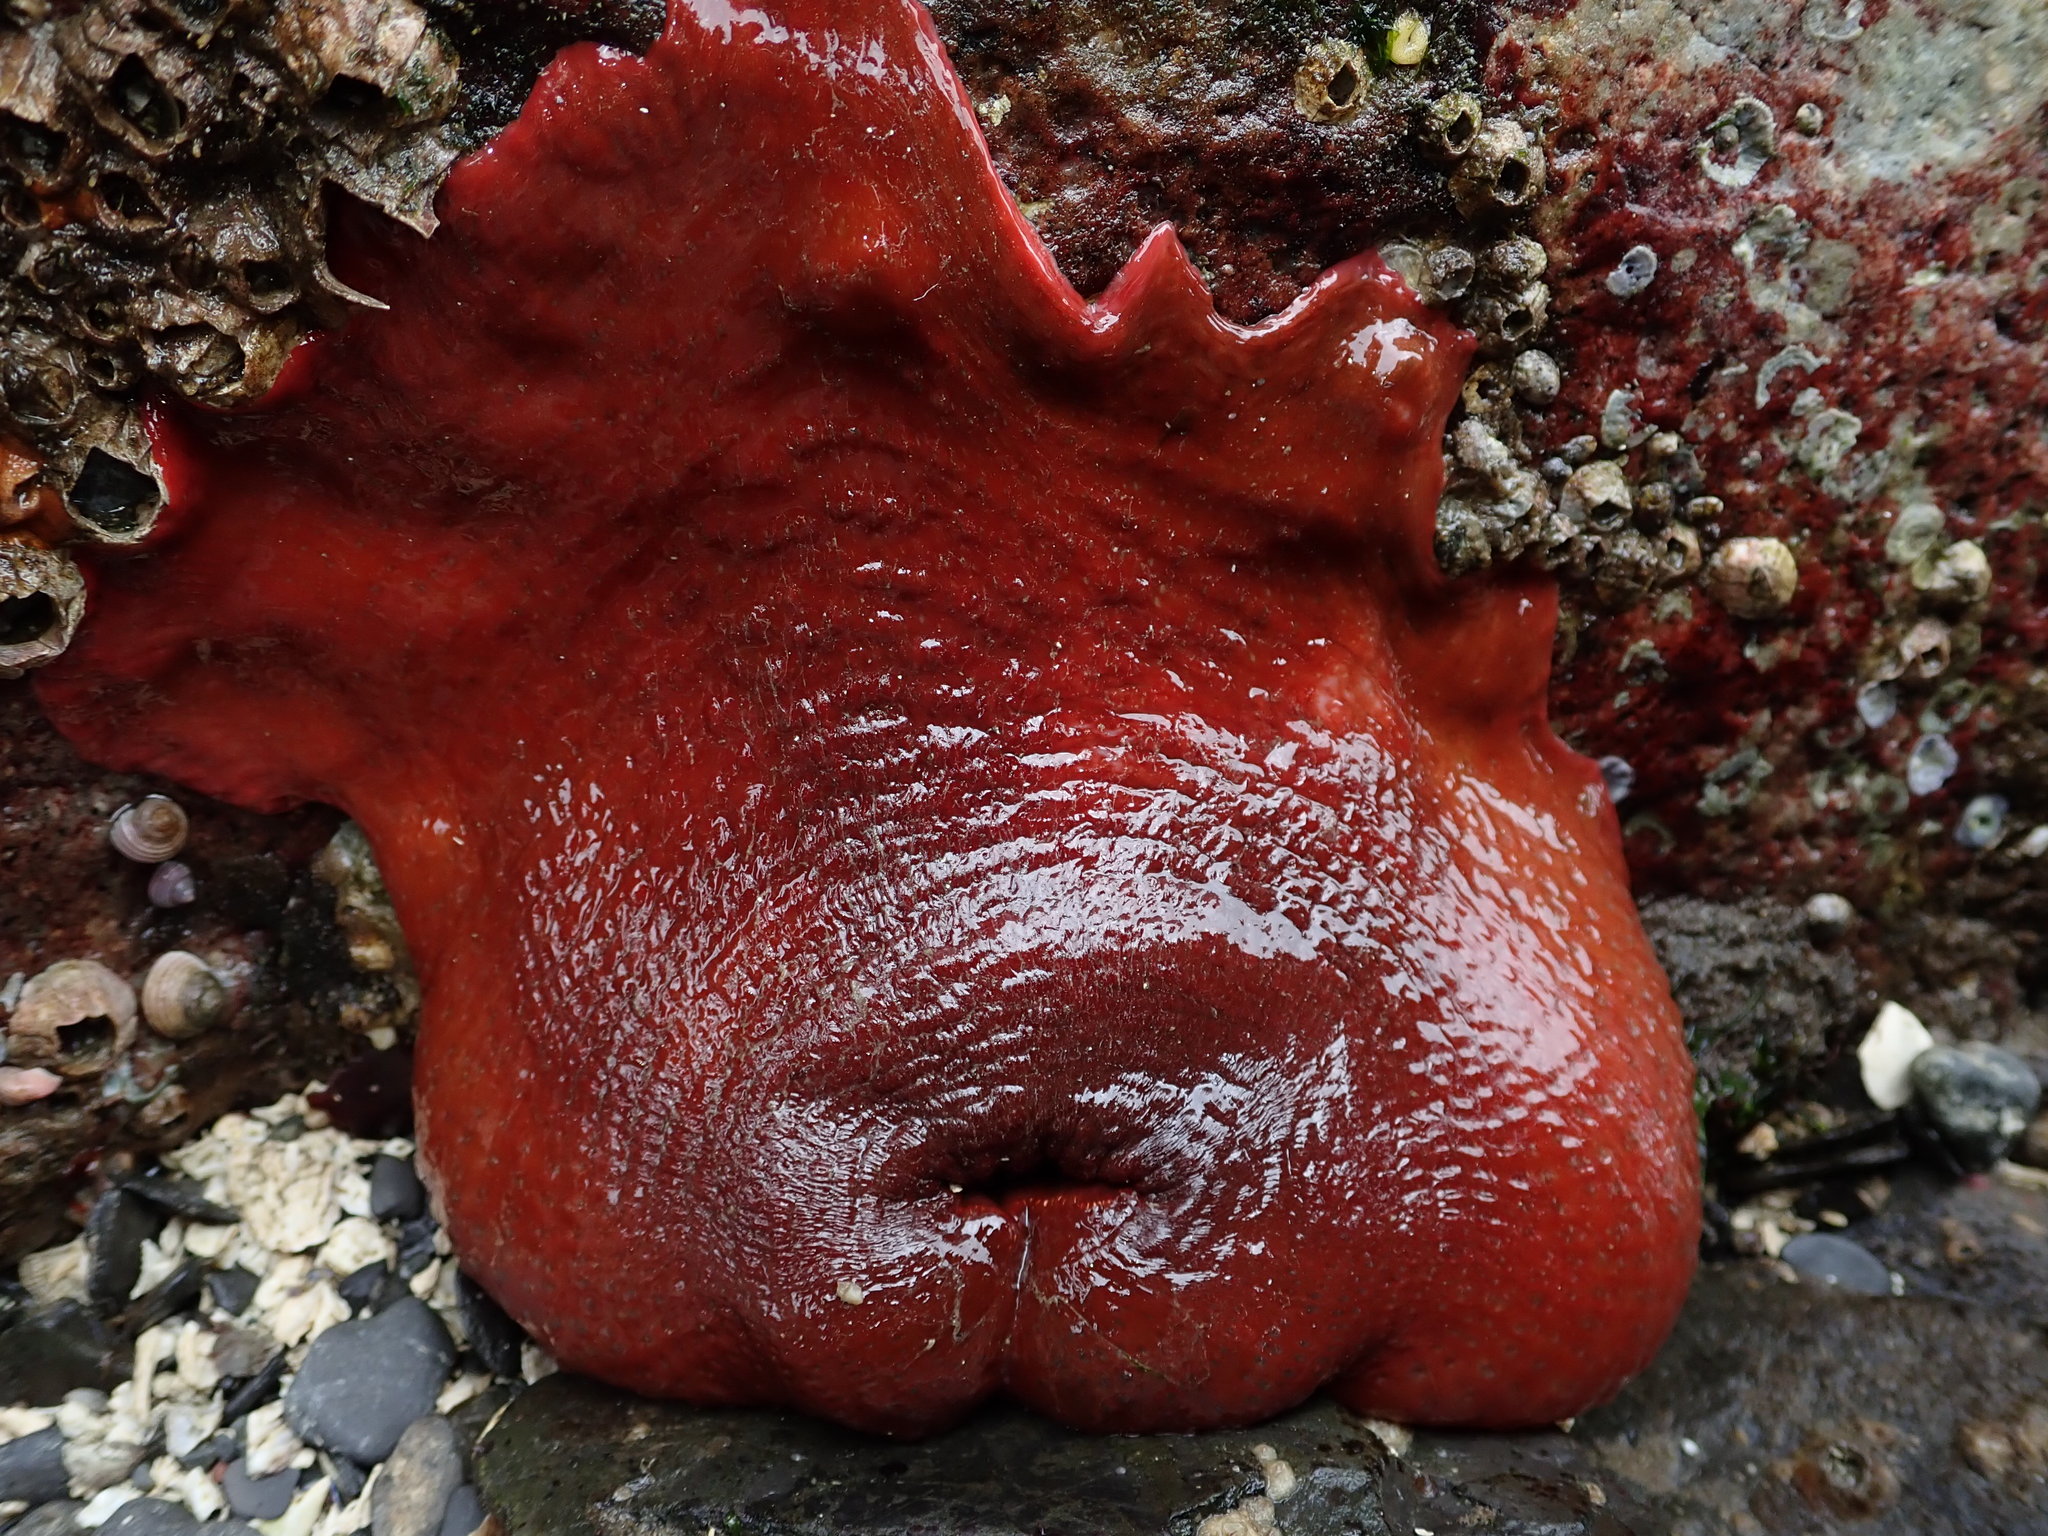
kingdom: Animalia
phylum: Cnidaria
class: Anthozoa
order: Actiniaria
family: Actiniidae
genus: Urticina
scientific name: Urticina grebelnyi
